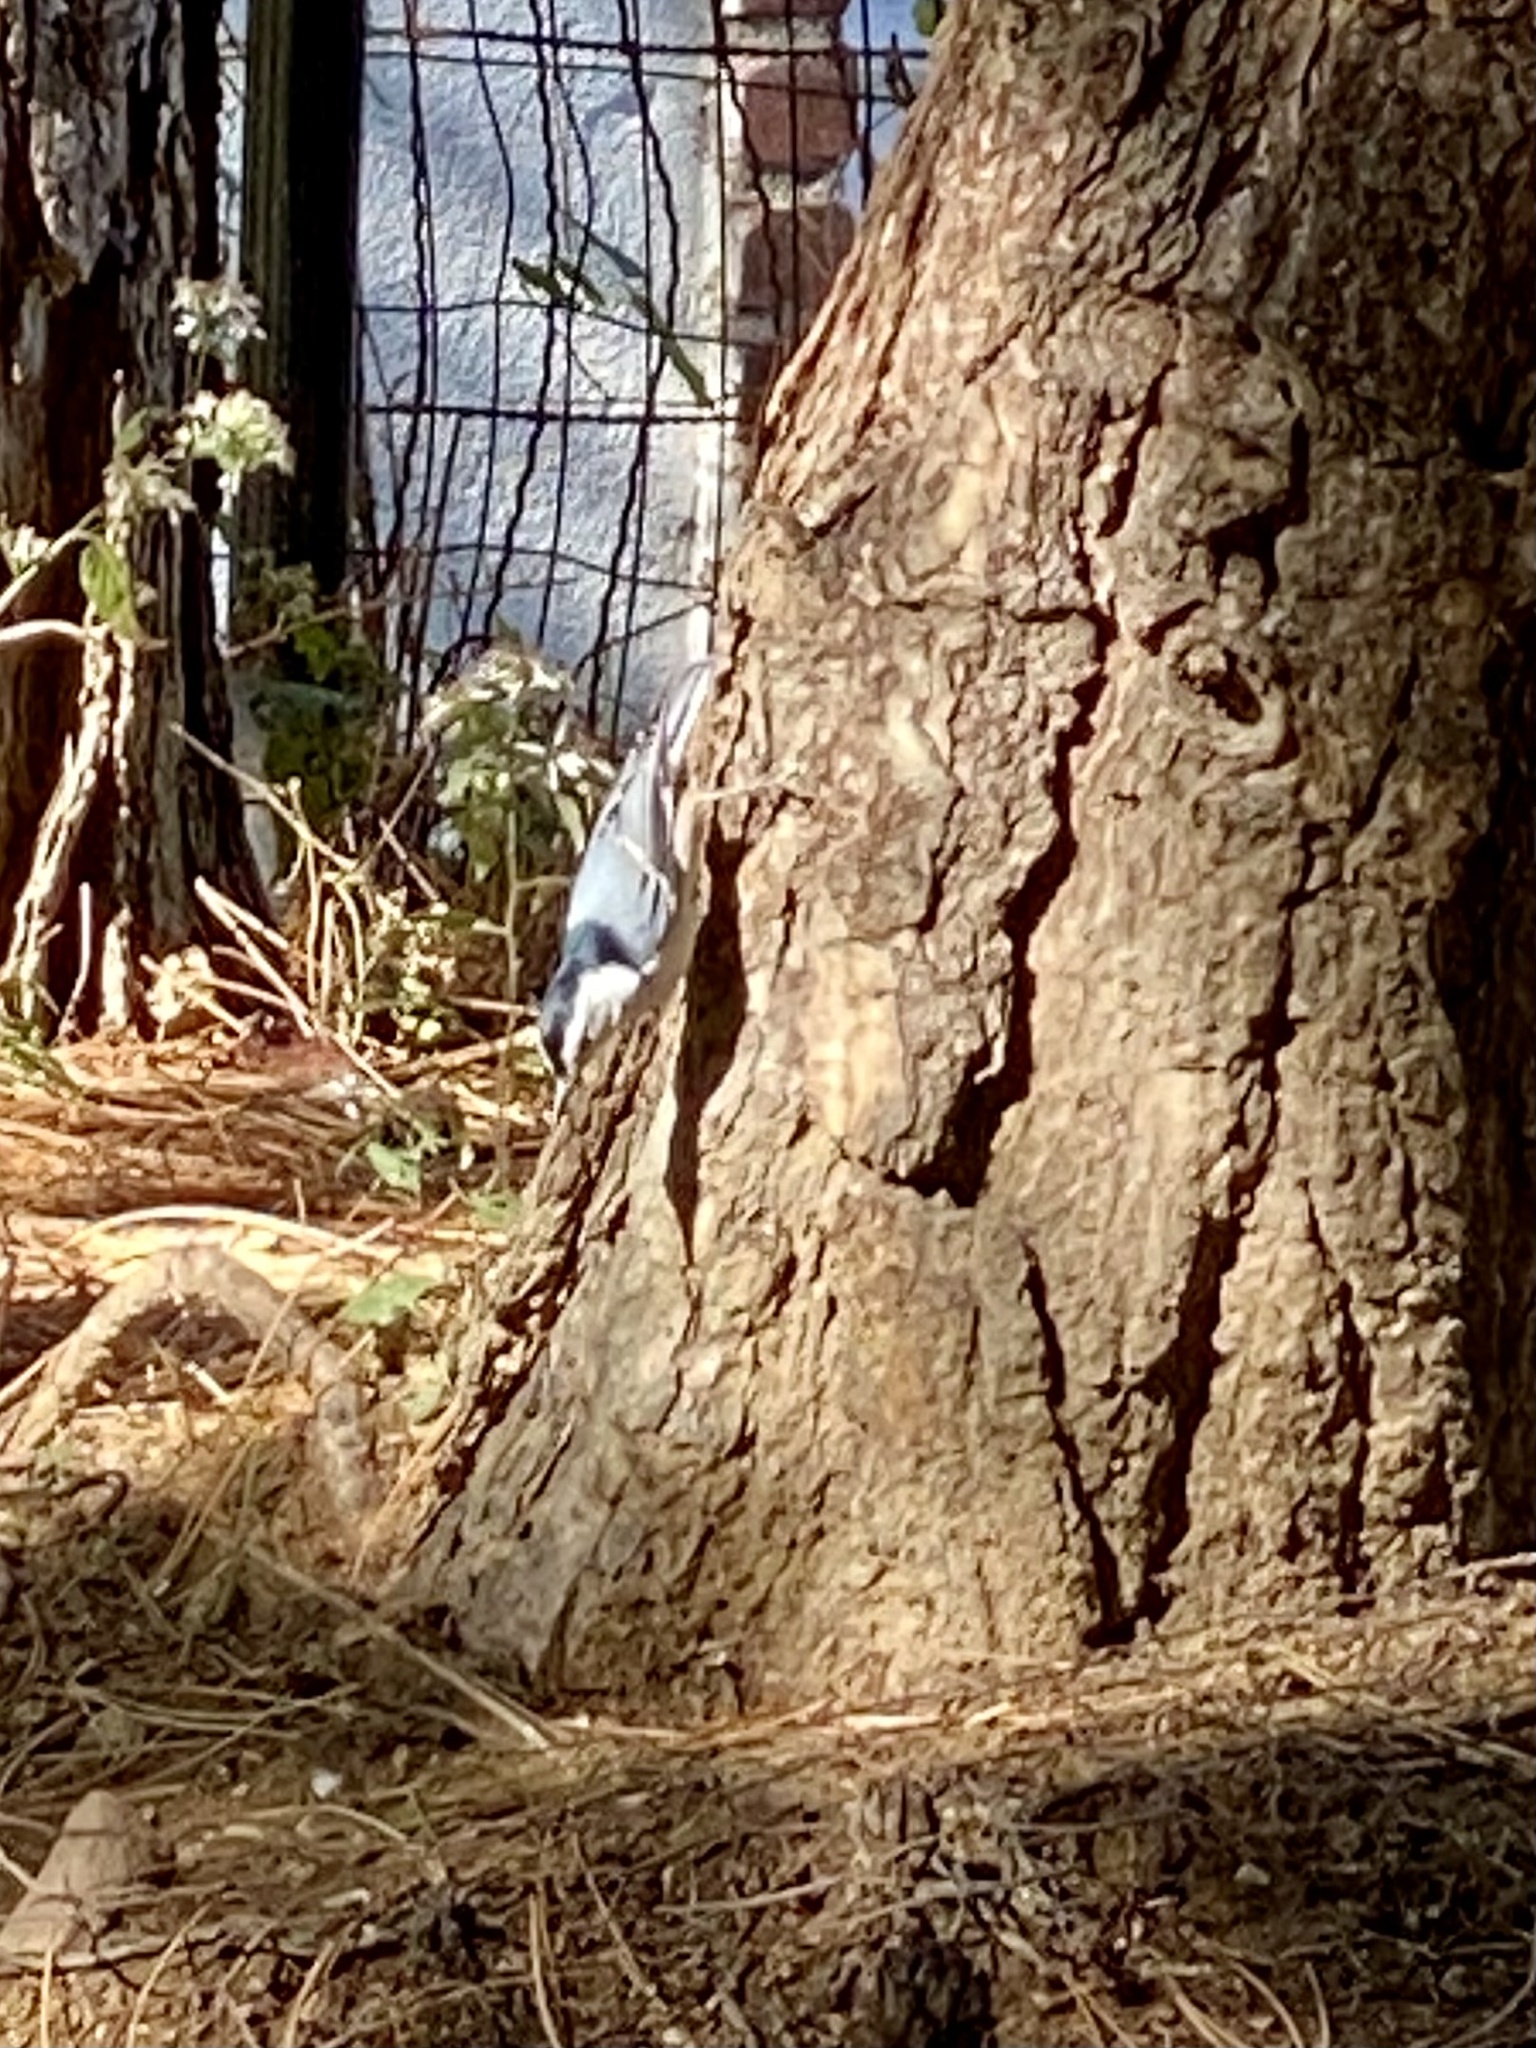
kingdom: Animalia
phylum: Chordata
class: Aves
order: Passeriformes
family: Sittidae
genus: Sitta
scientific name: Sitta carolinensis
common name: White-breasted nuthatch
